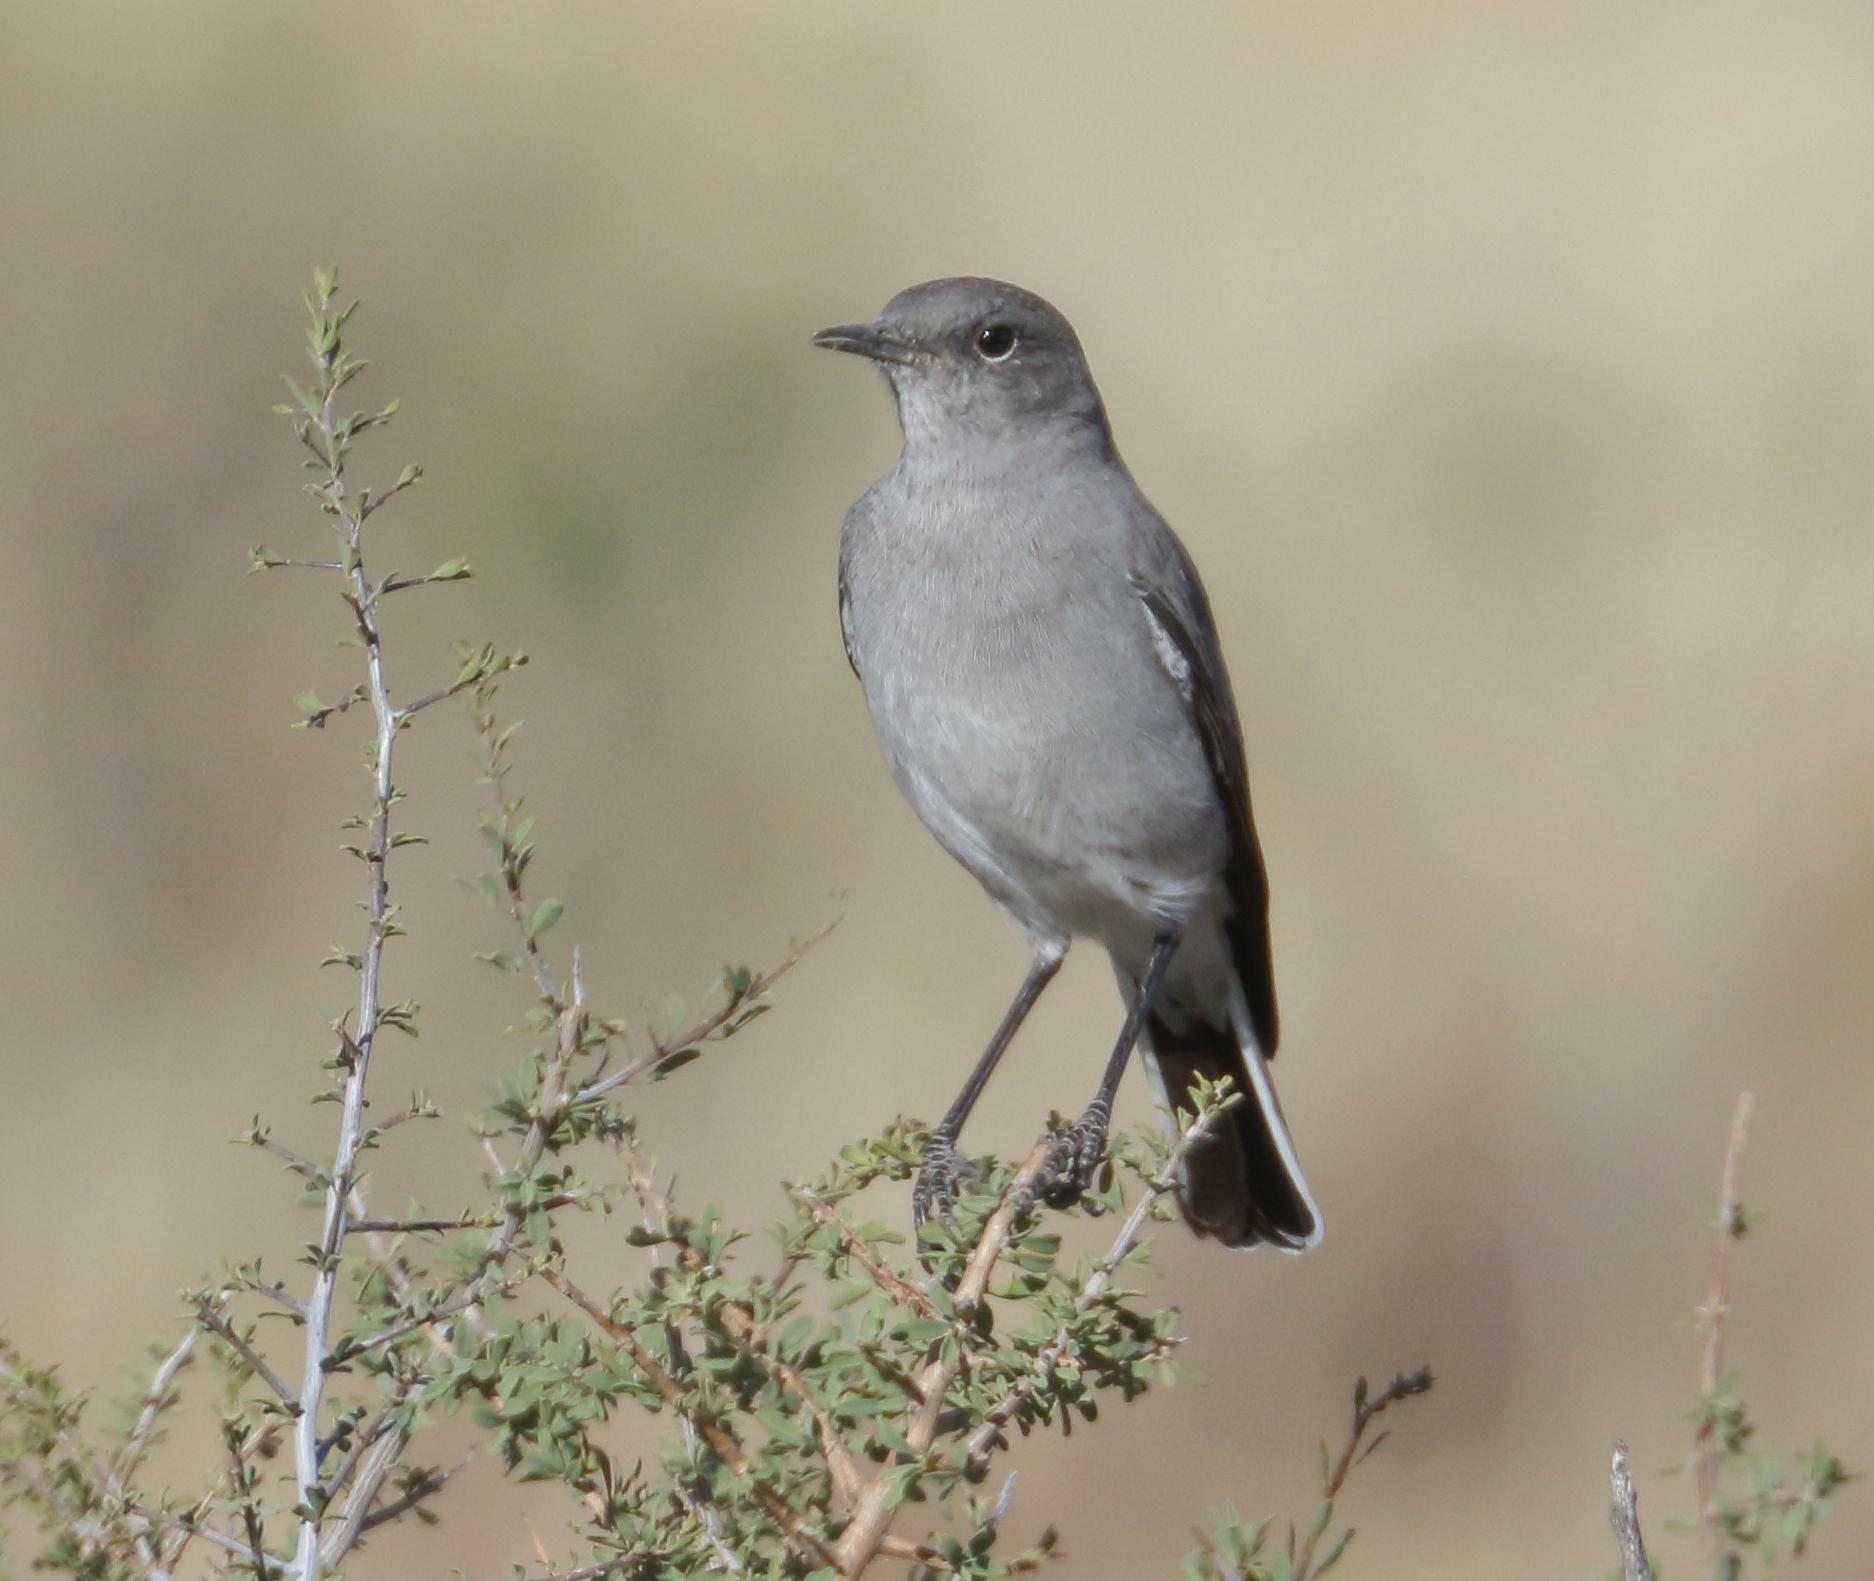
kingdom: Animalia
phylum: Chordata
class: Aves
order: Passeriformes
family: Muscicapidae
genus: Emarginata
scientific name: Emarginata schlegelii
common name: Karoo chat
